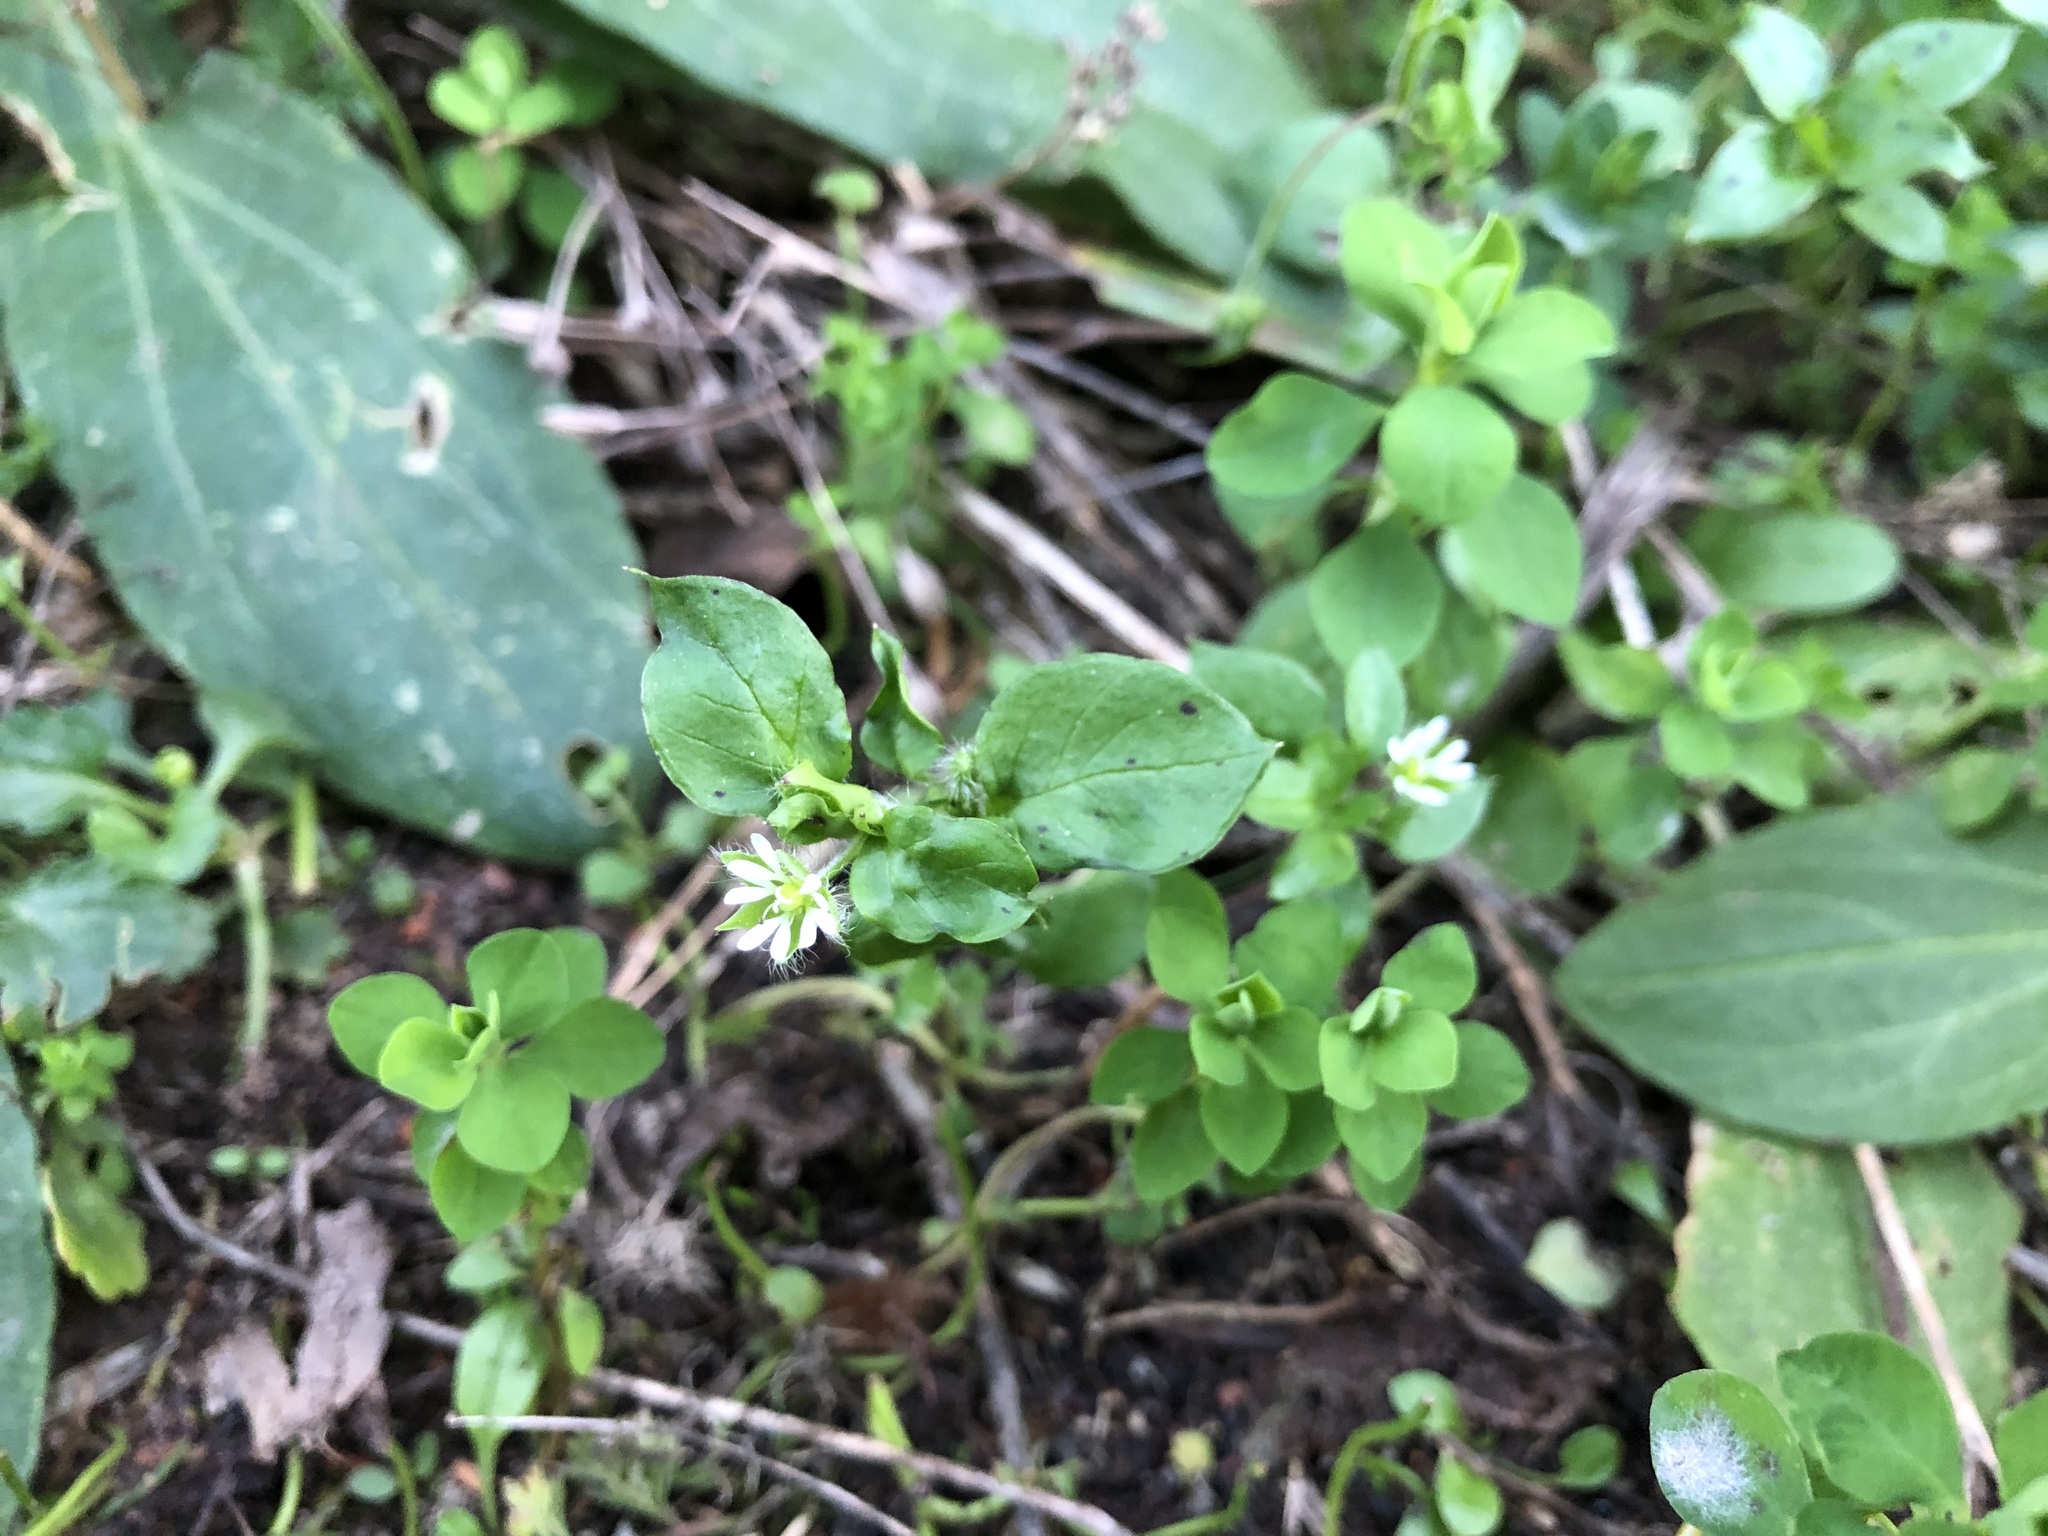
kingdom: Plantae
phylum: Tracheophyta
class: Magnoliopsida
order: Caryophyllales
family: Caryophyllaceae
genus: Stellaria
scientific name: Stellaria media
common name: Common chickweed
